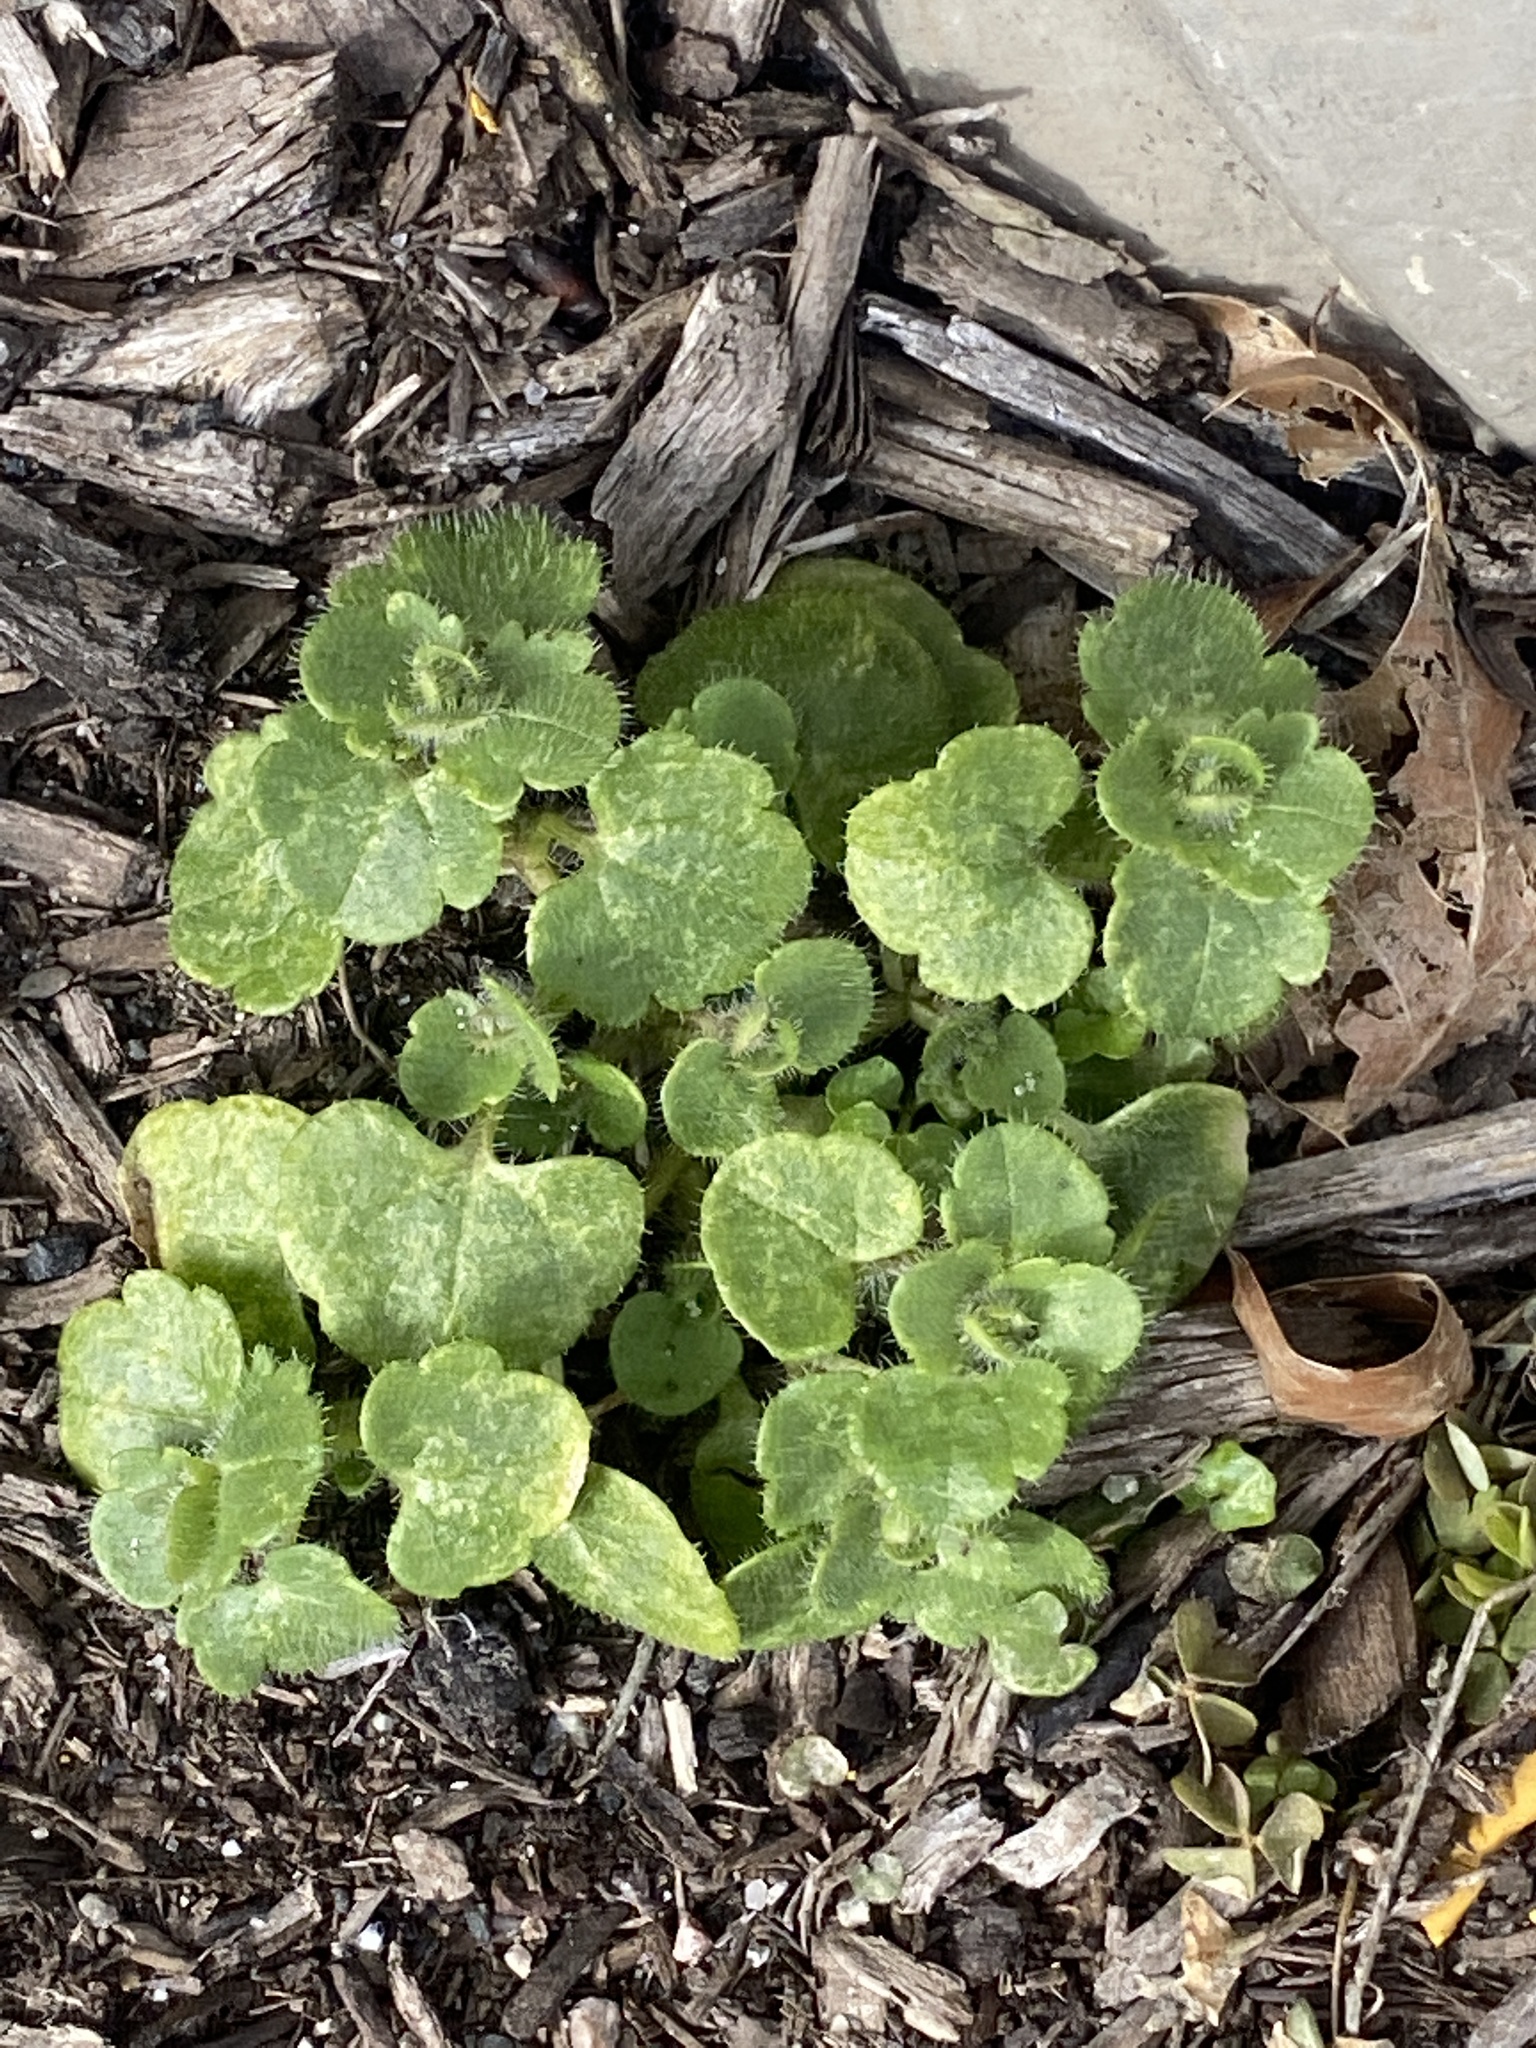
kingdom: Plantae
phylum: Tracheophyta
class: Magnoliopsida
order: Lamiales
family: Plantaginaceae
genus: Veronica
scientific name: Veronica hederifolia
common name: Ivy-leaved speedwell
